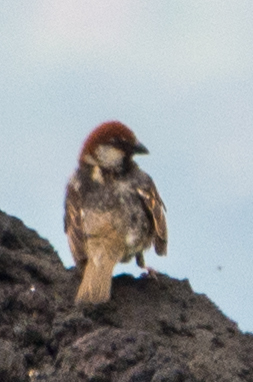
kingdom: Animalia
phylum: Chordata
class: Aves
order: Passeriformes
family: Passeridae
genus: Passer
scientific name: Passer italiae
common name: Italian sparrow
